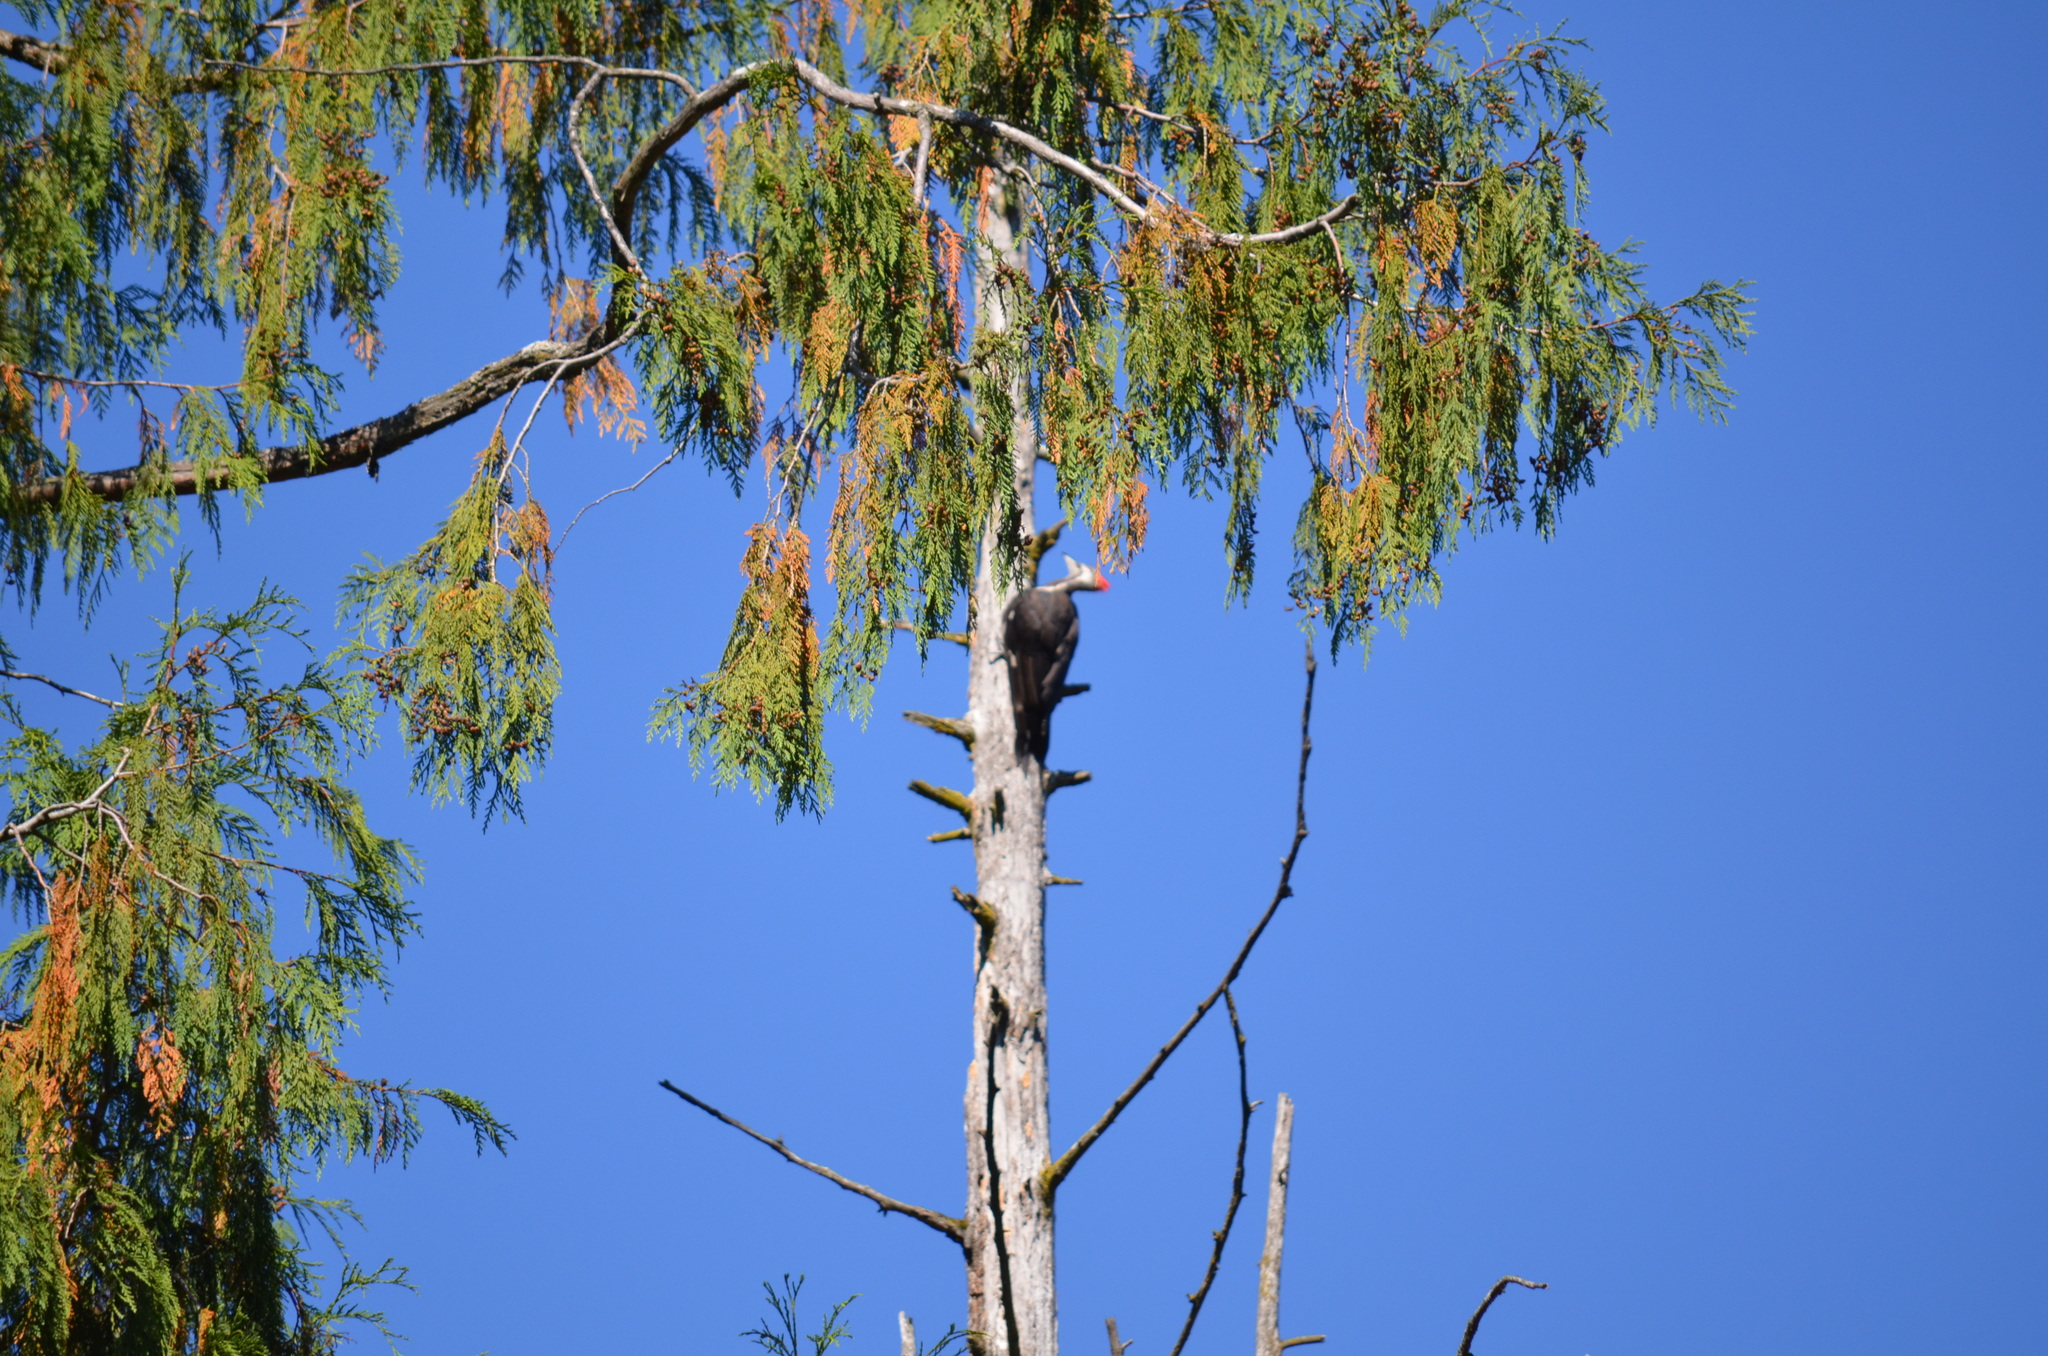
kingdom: Animalia
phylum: Chordata
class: Aves
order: Piciformes
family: Picidae
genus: Dryocopus
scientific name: Dryocopus pileatus
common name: Pileated woodpecker
